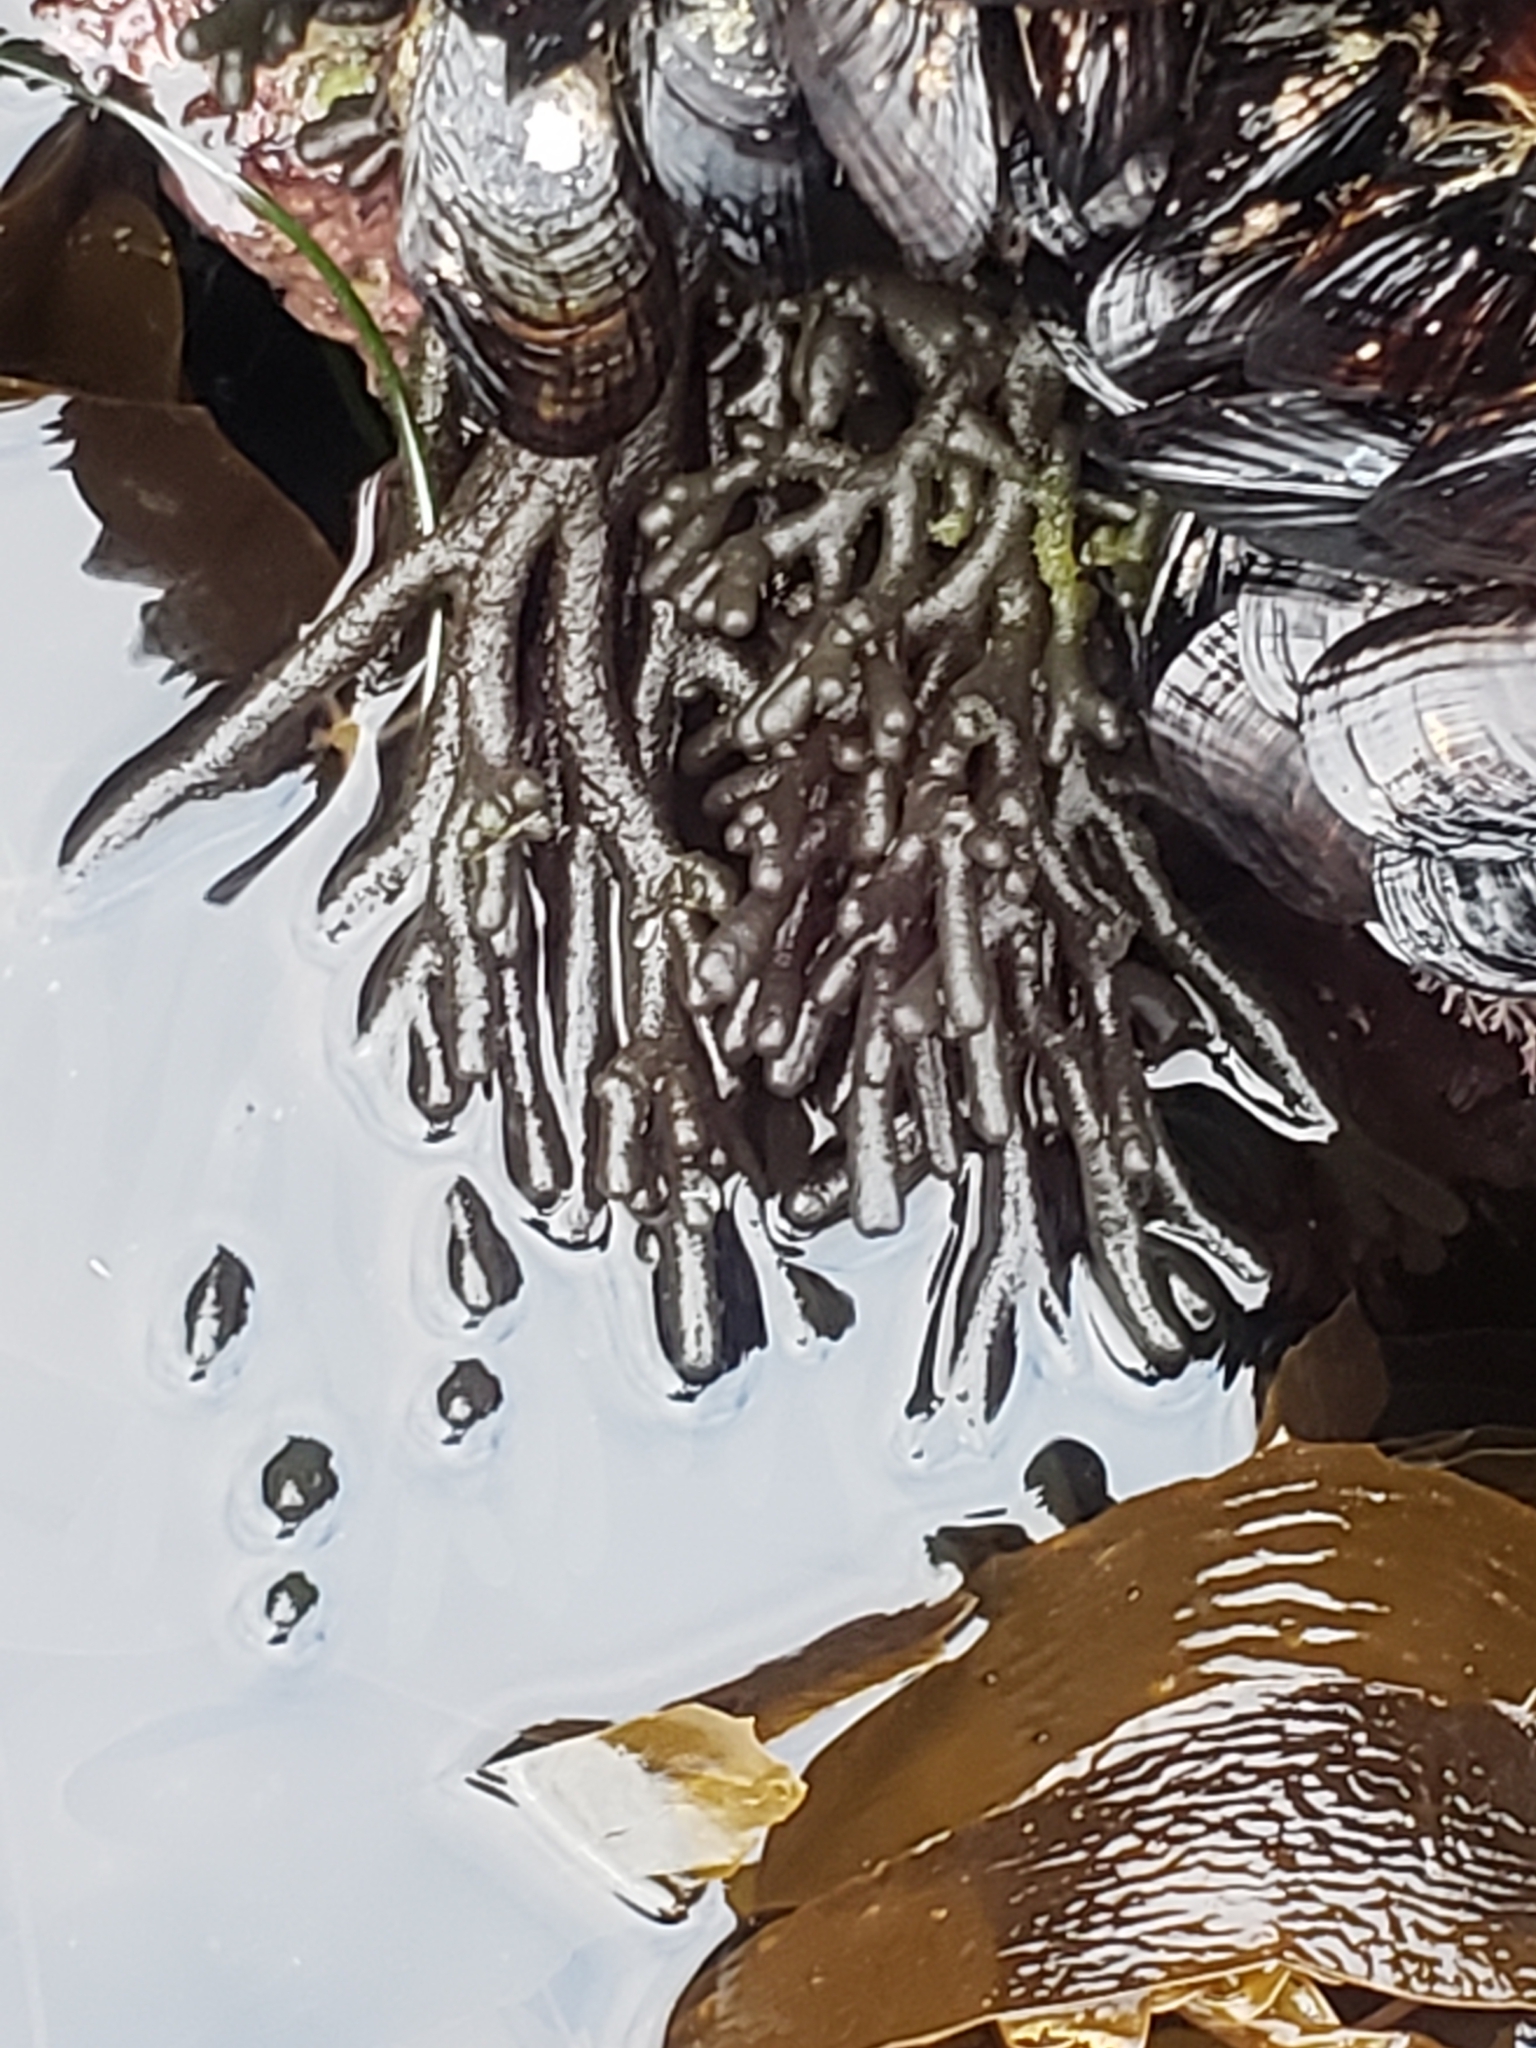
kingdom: Plantae
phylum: Chlorophyta
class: Ulvophyceae
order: Bryopsidales
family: Codiaceae
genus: Codium
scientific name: Codium fragile
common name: Dead man's fingers
